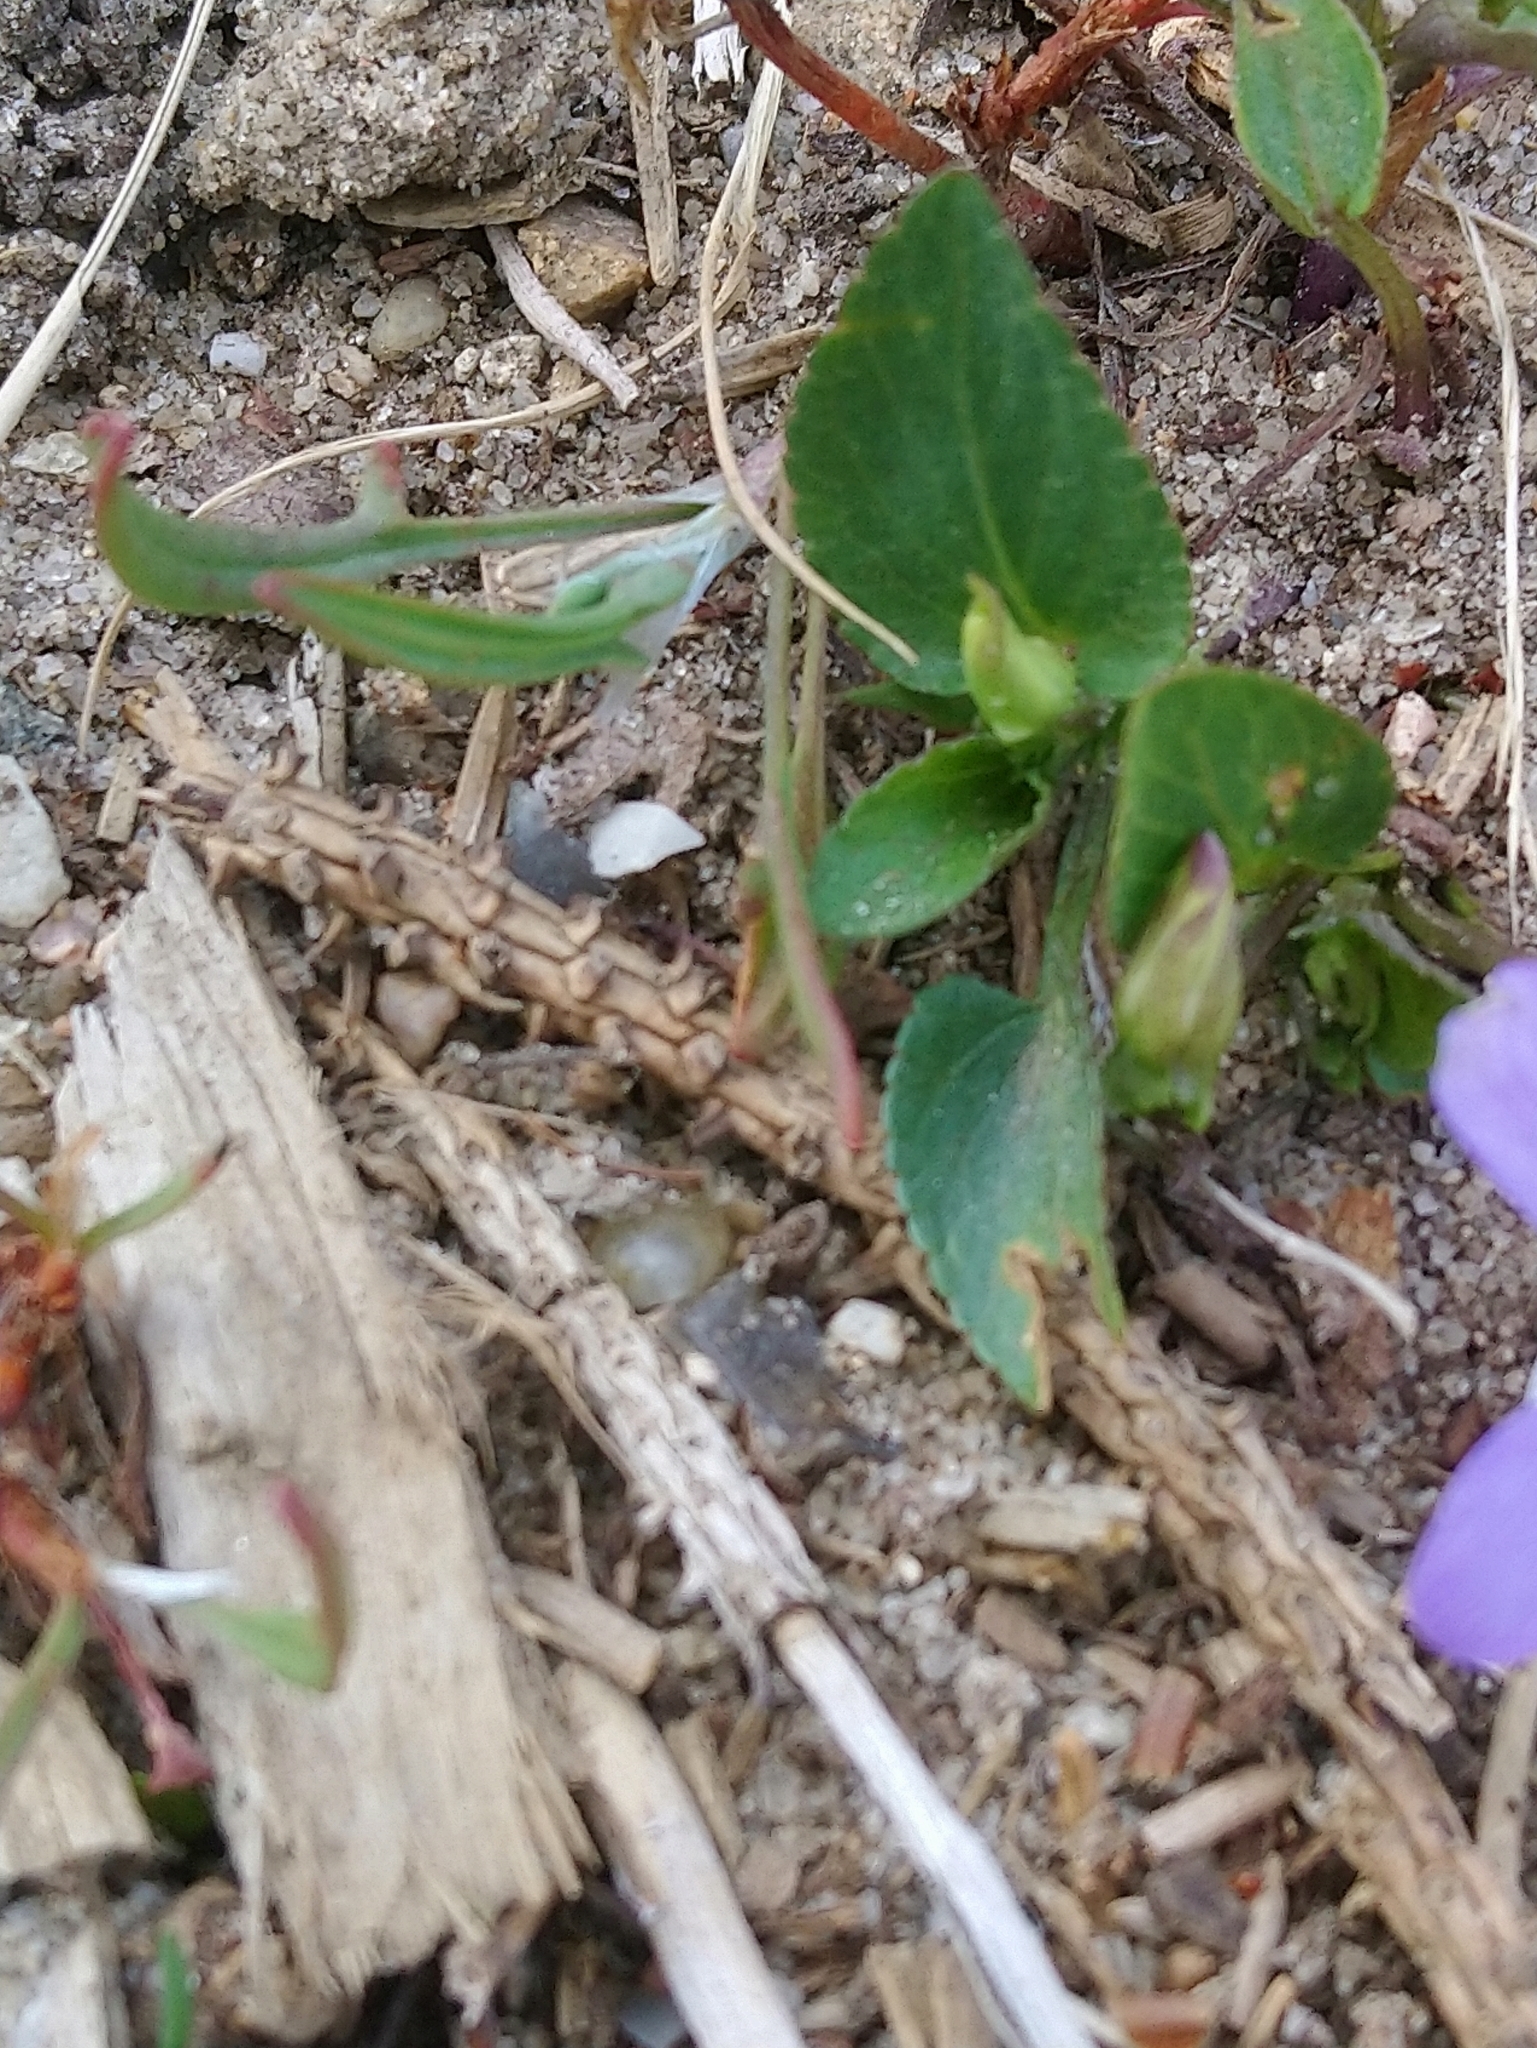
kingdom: Plantae
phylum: Tracheophyta
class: Magnoliopsida
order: Malpighiales
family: Violaceae
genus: Viola
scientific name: Viola canina
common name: Heath dog-violet
